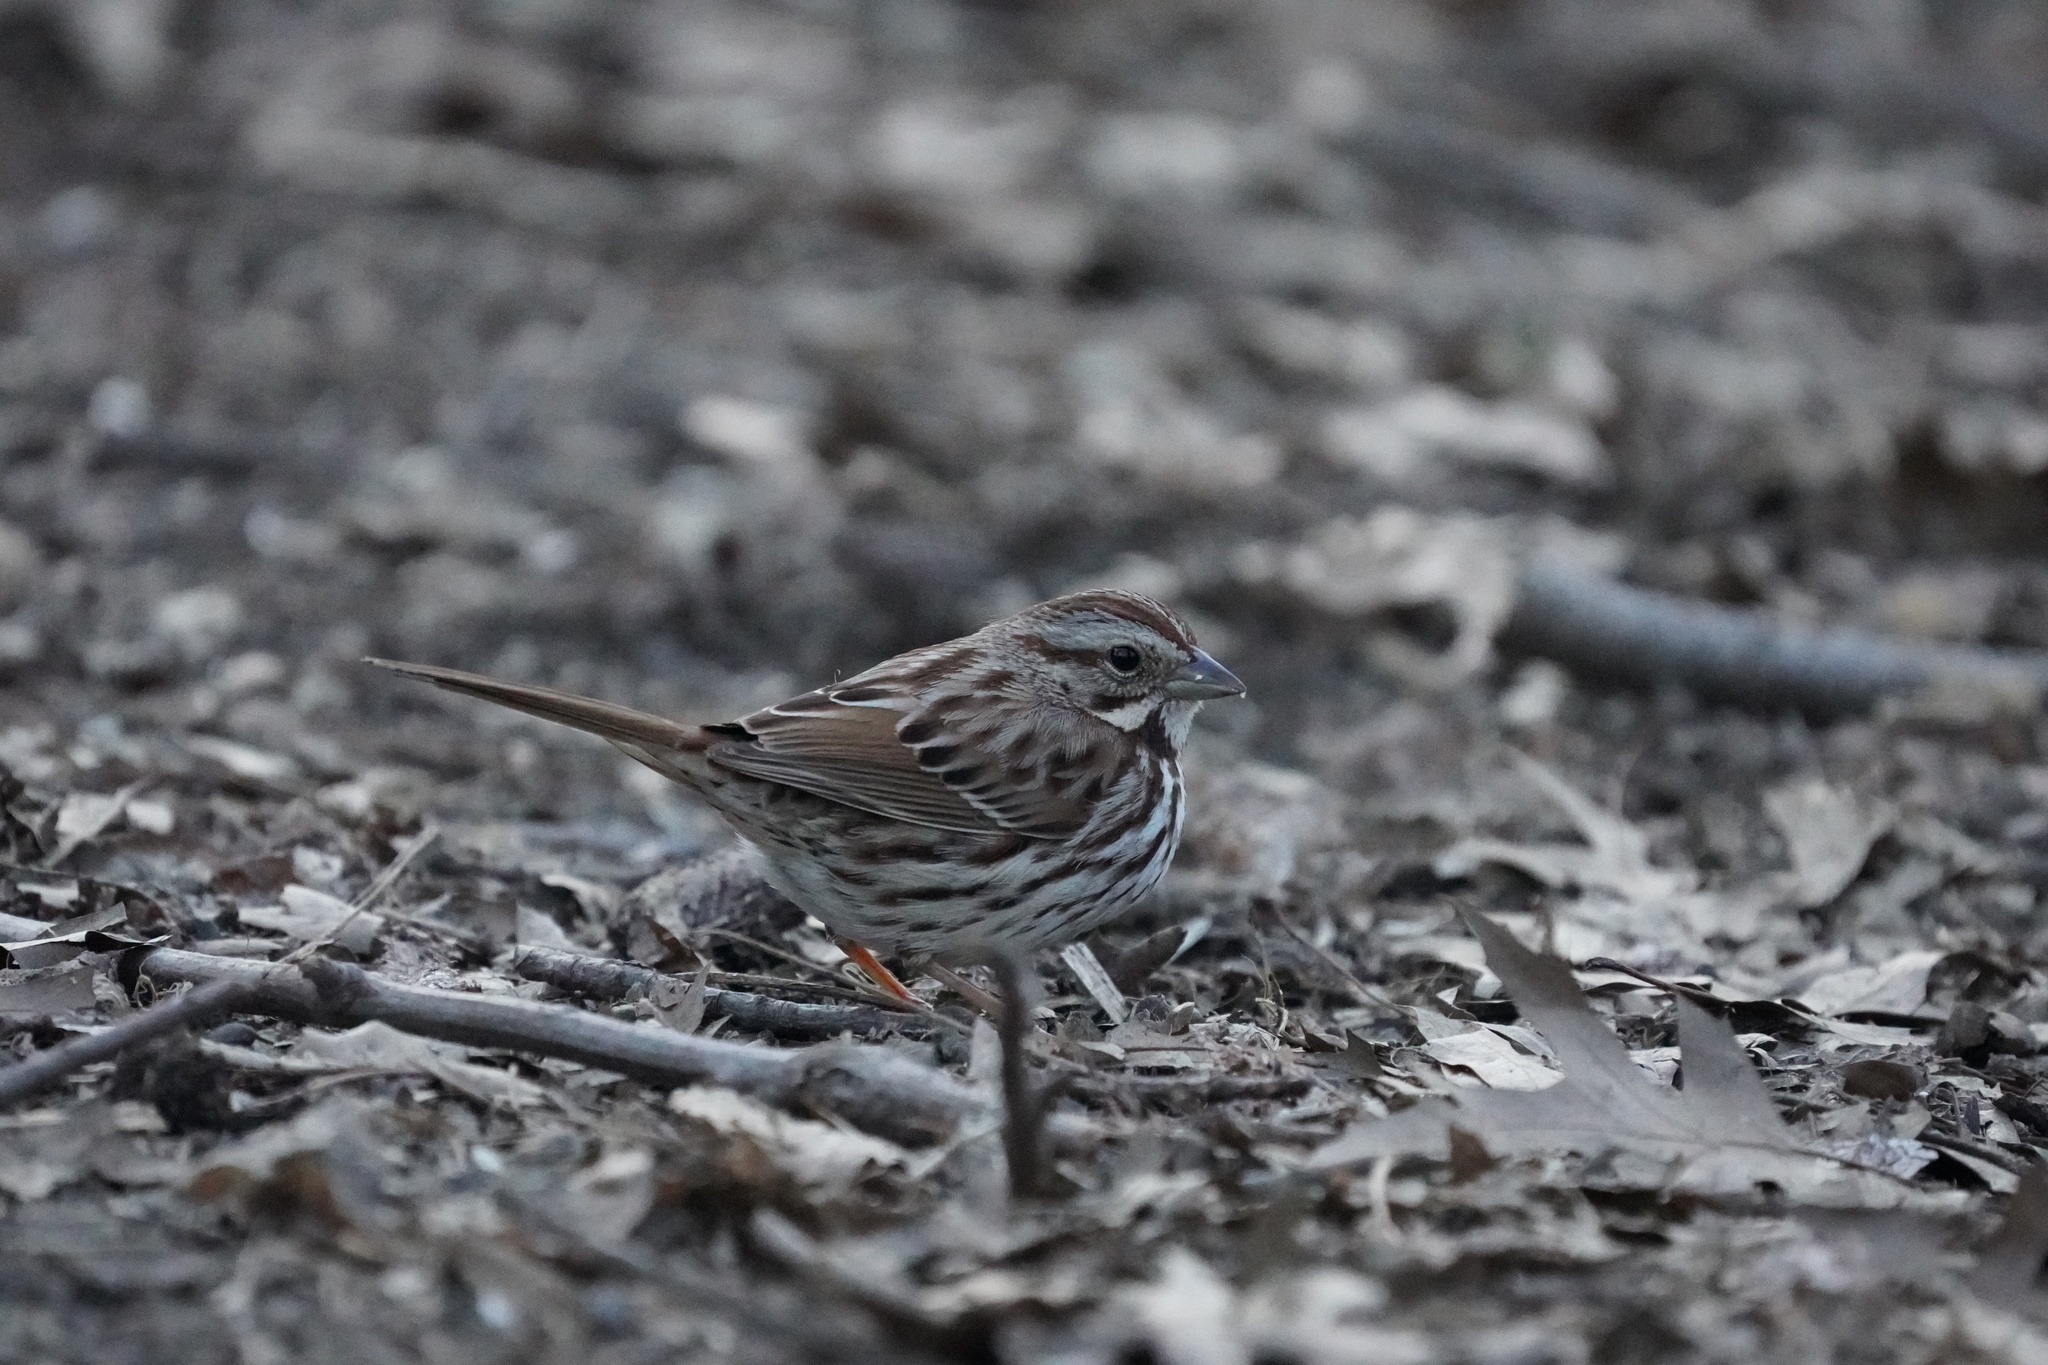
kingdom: Animalia
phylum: Chordata
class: Aves
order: Passeriformes
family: Passerellidae
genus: Melospiza
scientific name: Melospiza melodia
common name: Song sparrow
